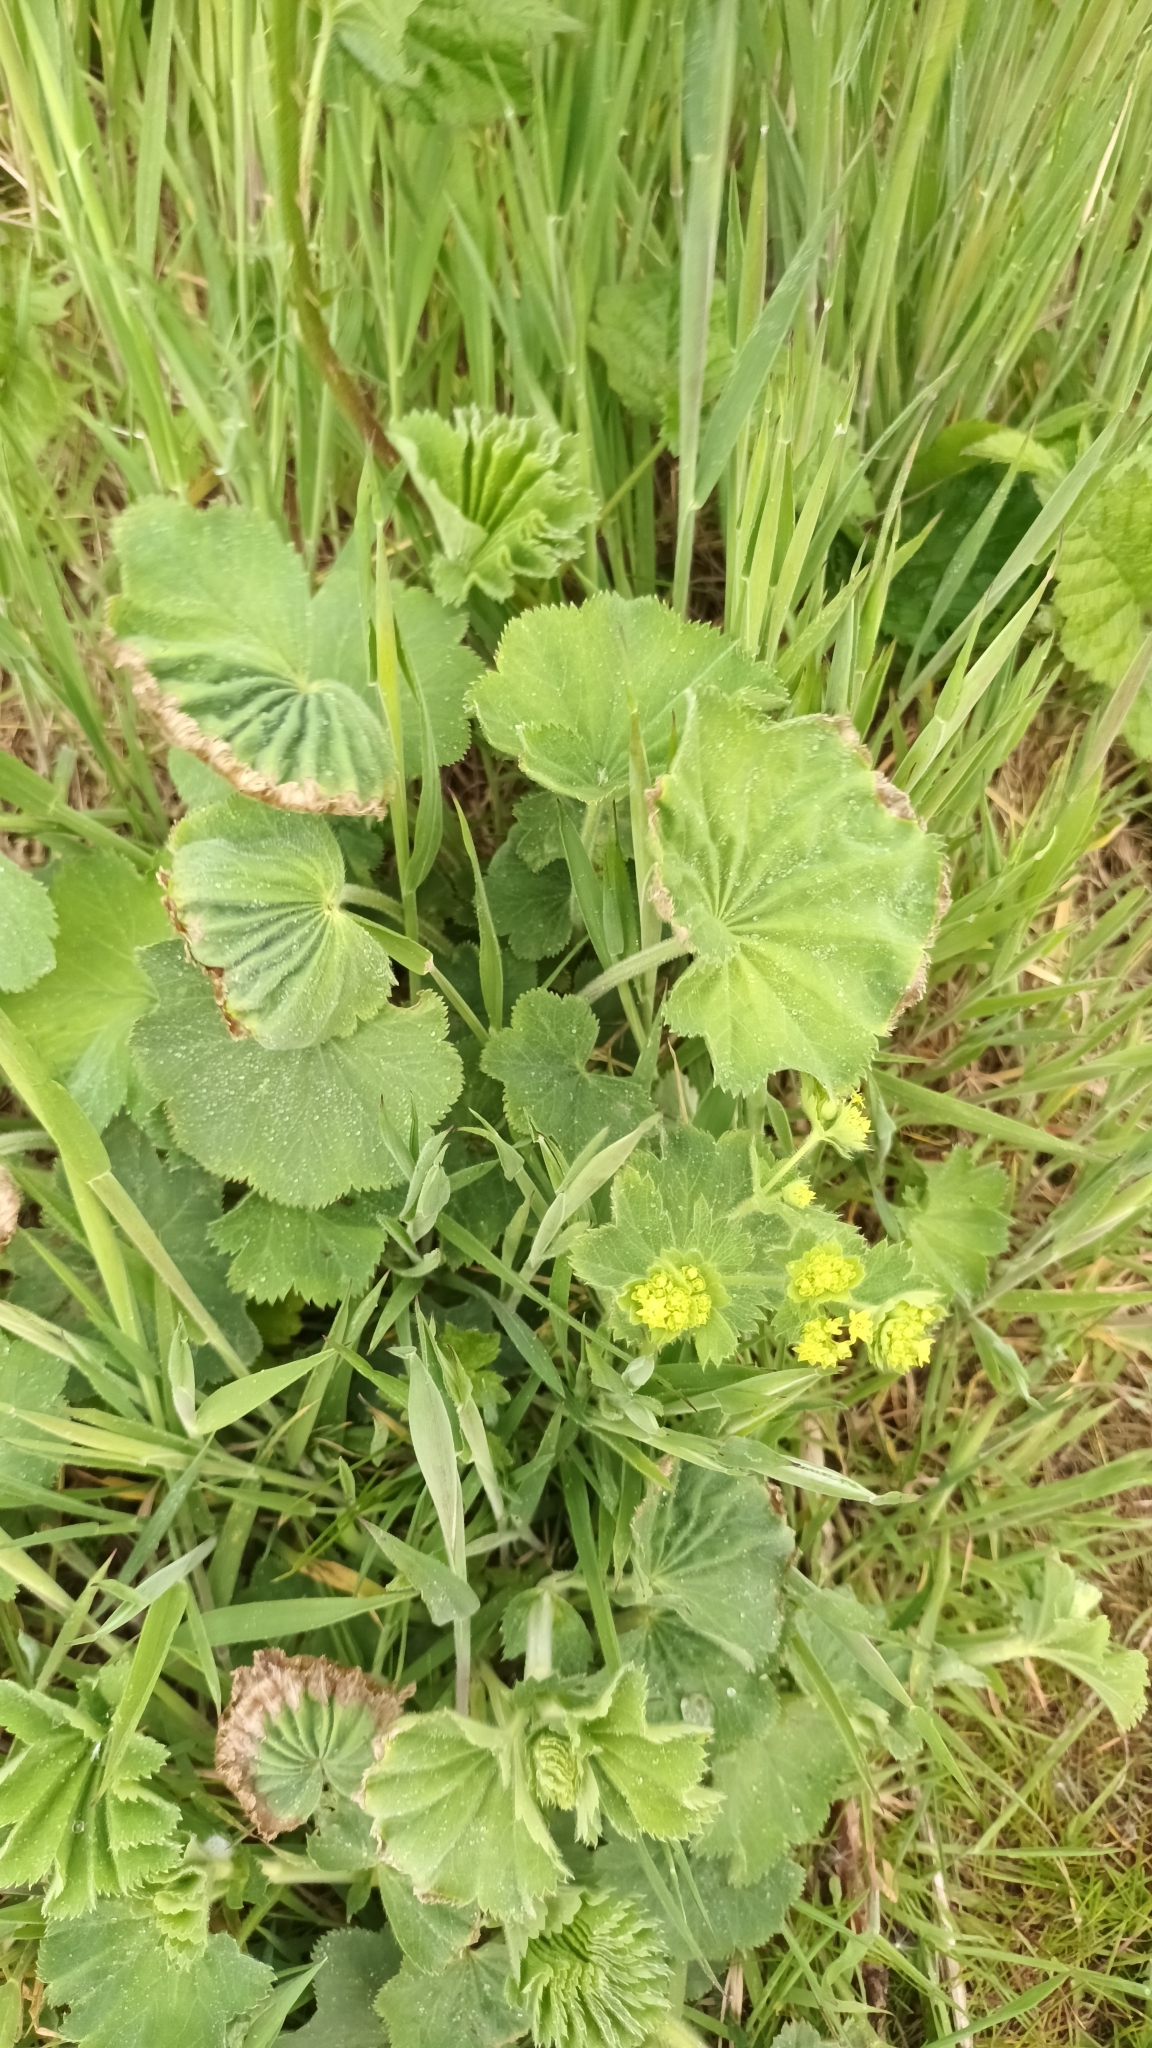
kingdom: Plantae
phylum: Tracheophyta
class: Magnoliopsida
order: Rosales
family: Rosaceae
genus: Alchemilla
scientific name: Alchemilla mollis
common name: Lady's-mantle
